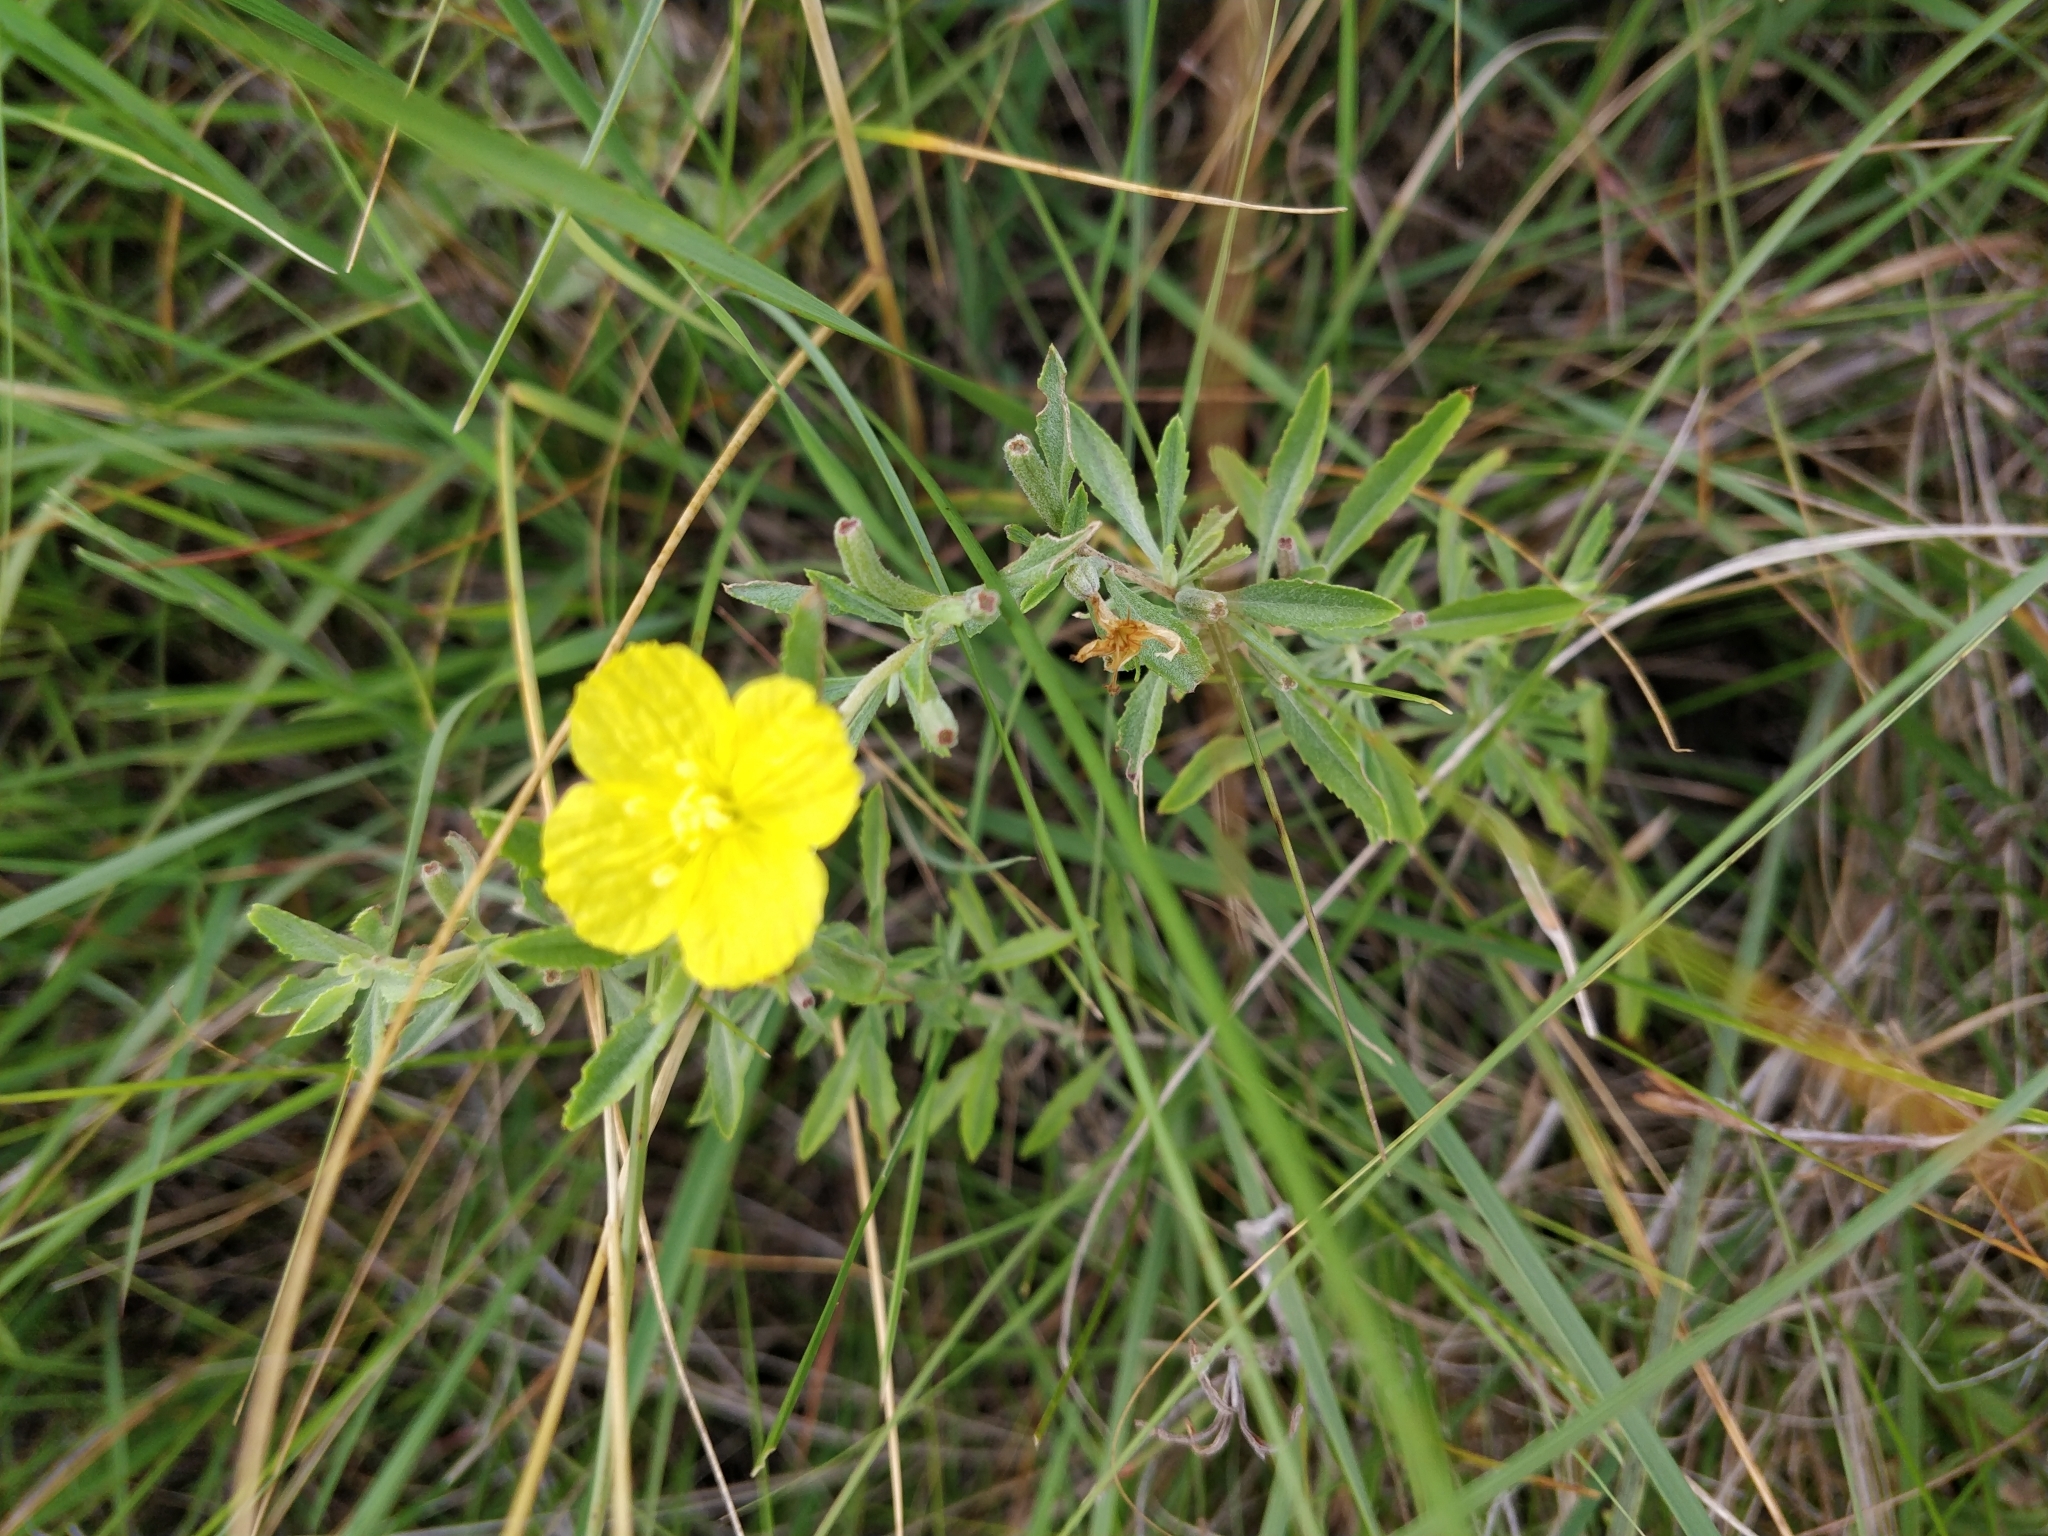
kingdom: Plantae
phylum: Tracheophyta
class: Magnoliopsida
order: Myrtales
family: Onagraceae
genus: Oenothera
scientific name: Oenothera serrulata
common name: Half-shrub calylophus
